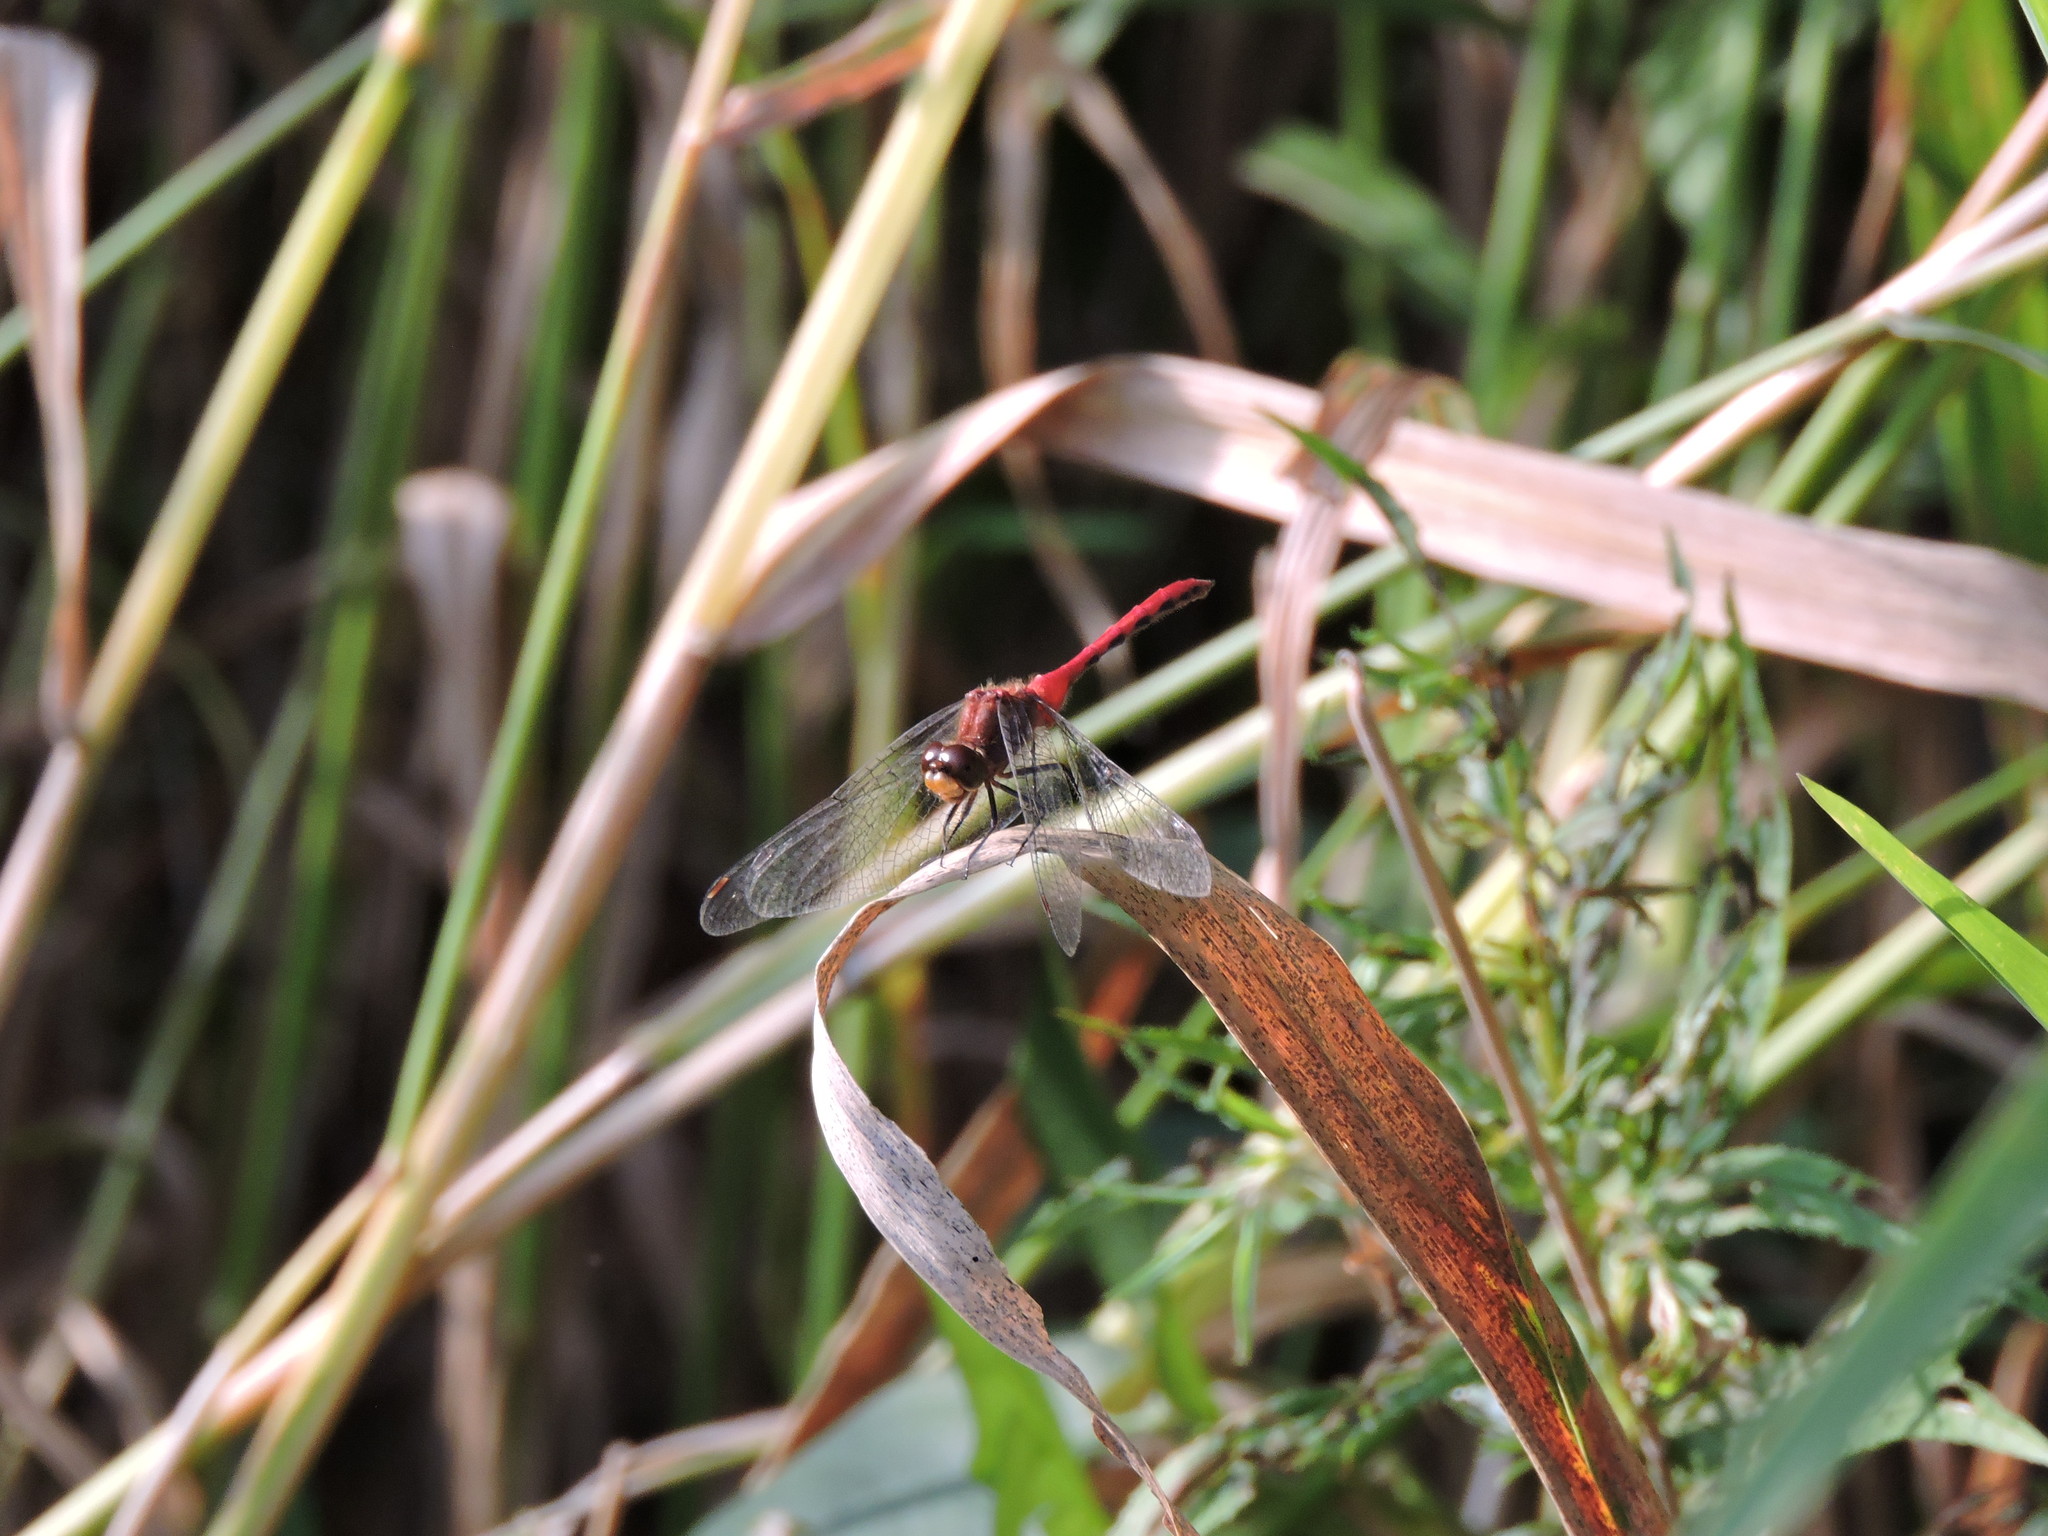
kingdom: Animalia
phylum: Arthropoda
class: Insecta
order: Odonata
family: Libellulidae
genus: Sympetrum
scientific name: Sympetrum
